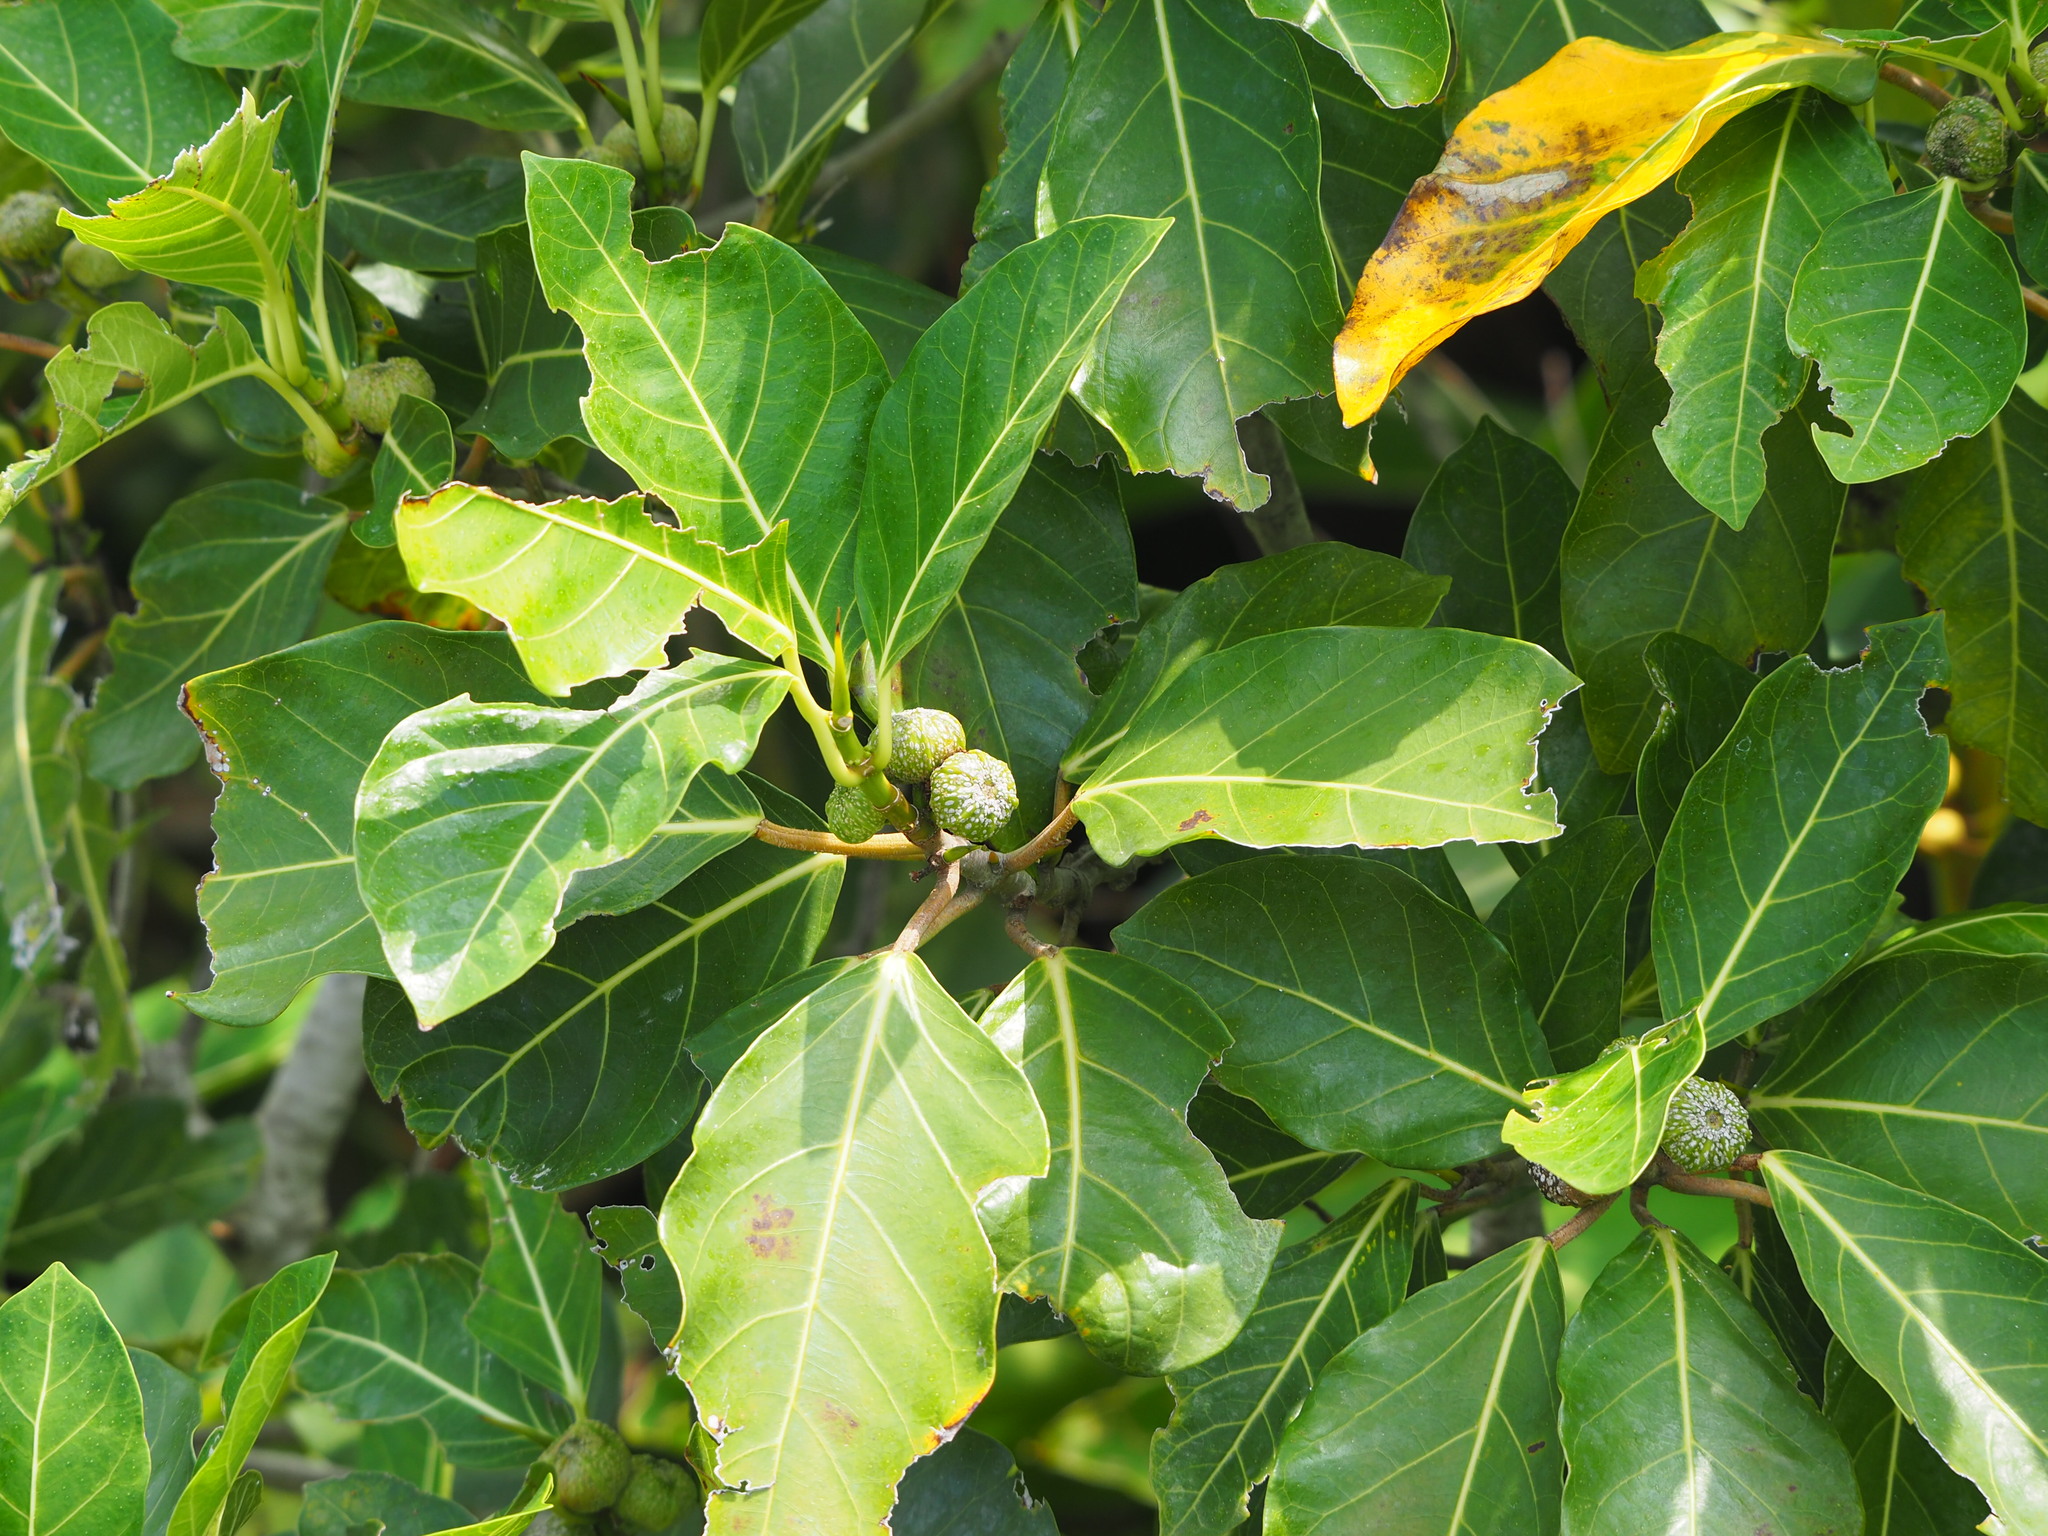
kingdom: Plantae
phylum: Tracheophyta
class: Magnoliopsida
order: Rosales
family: Moraceae
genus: Ficus
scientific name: Ficus septica
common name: Septic fig
